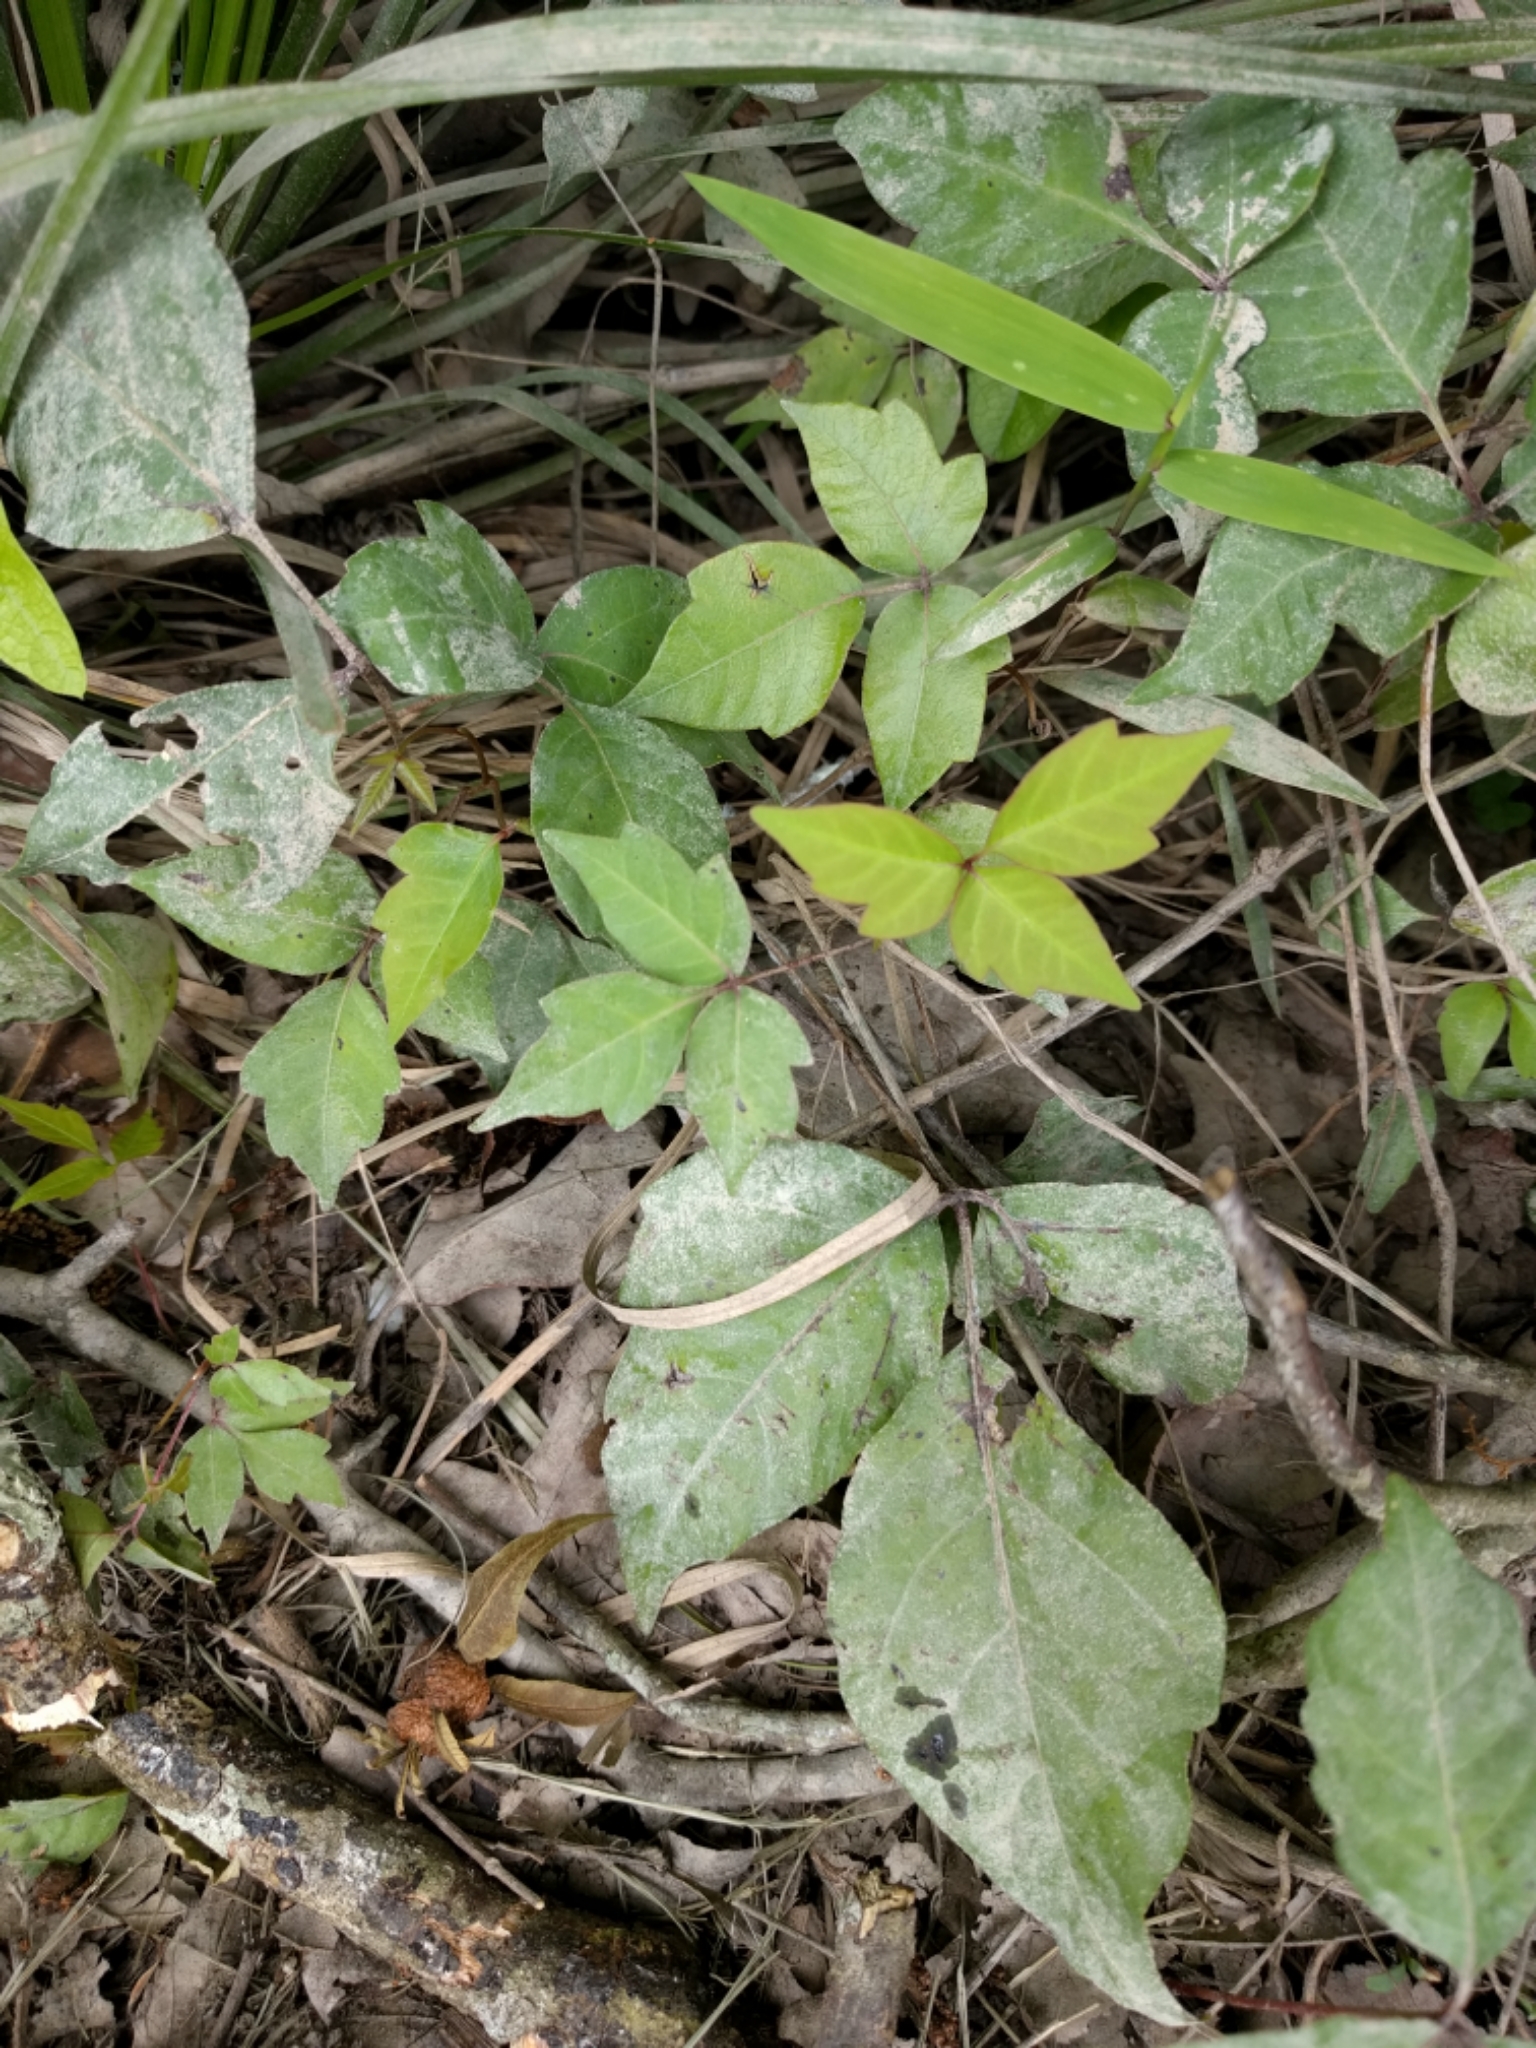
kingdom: Plantae
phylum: Tracheophyta
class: Magnoliopsida
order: Sapindales
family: Anacardiaceae
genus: Toxicodendron
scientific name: Toxicodendron radicans
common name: Poison ivy
